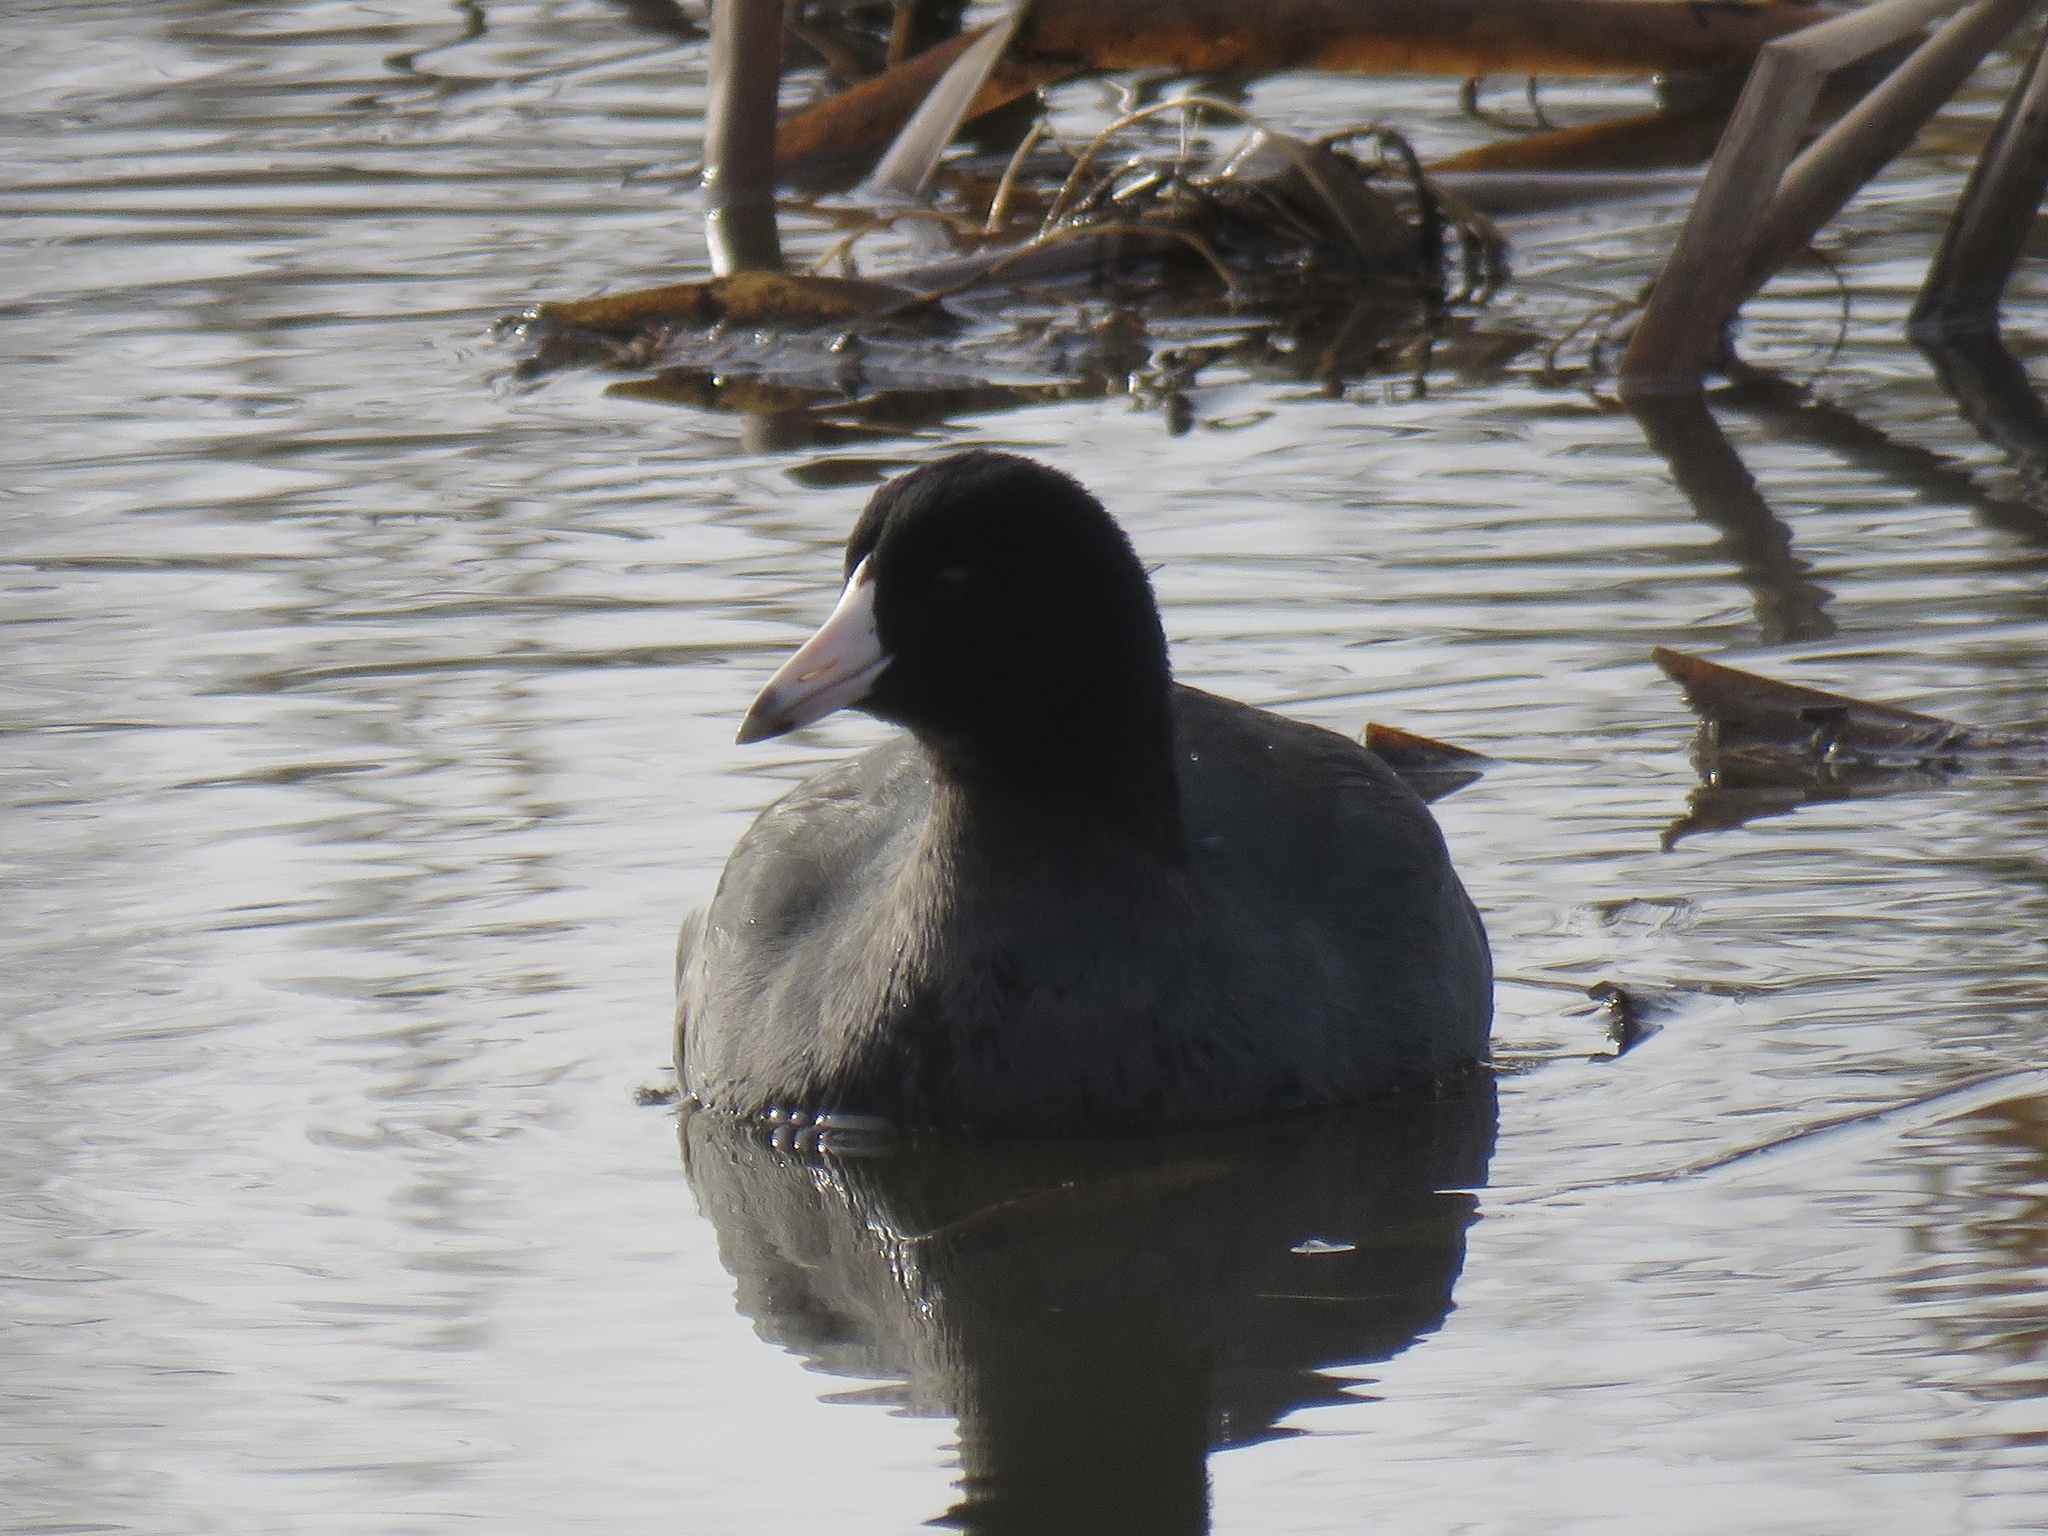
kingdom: Animalia
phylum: Chordata
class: Aves
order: Gruiformes
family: Rallidae
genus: Fulica
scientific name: Fulica americana
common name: American coot
